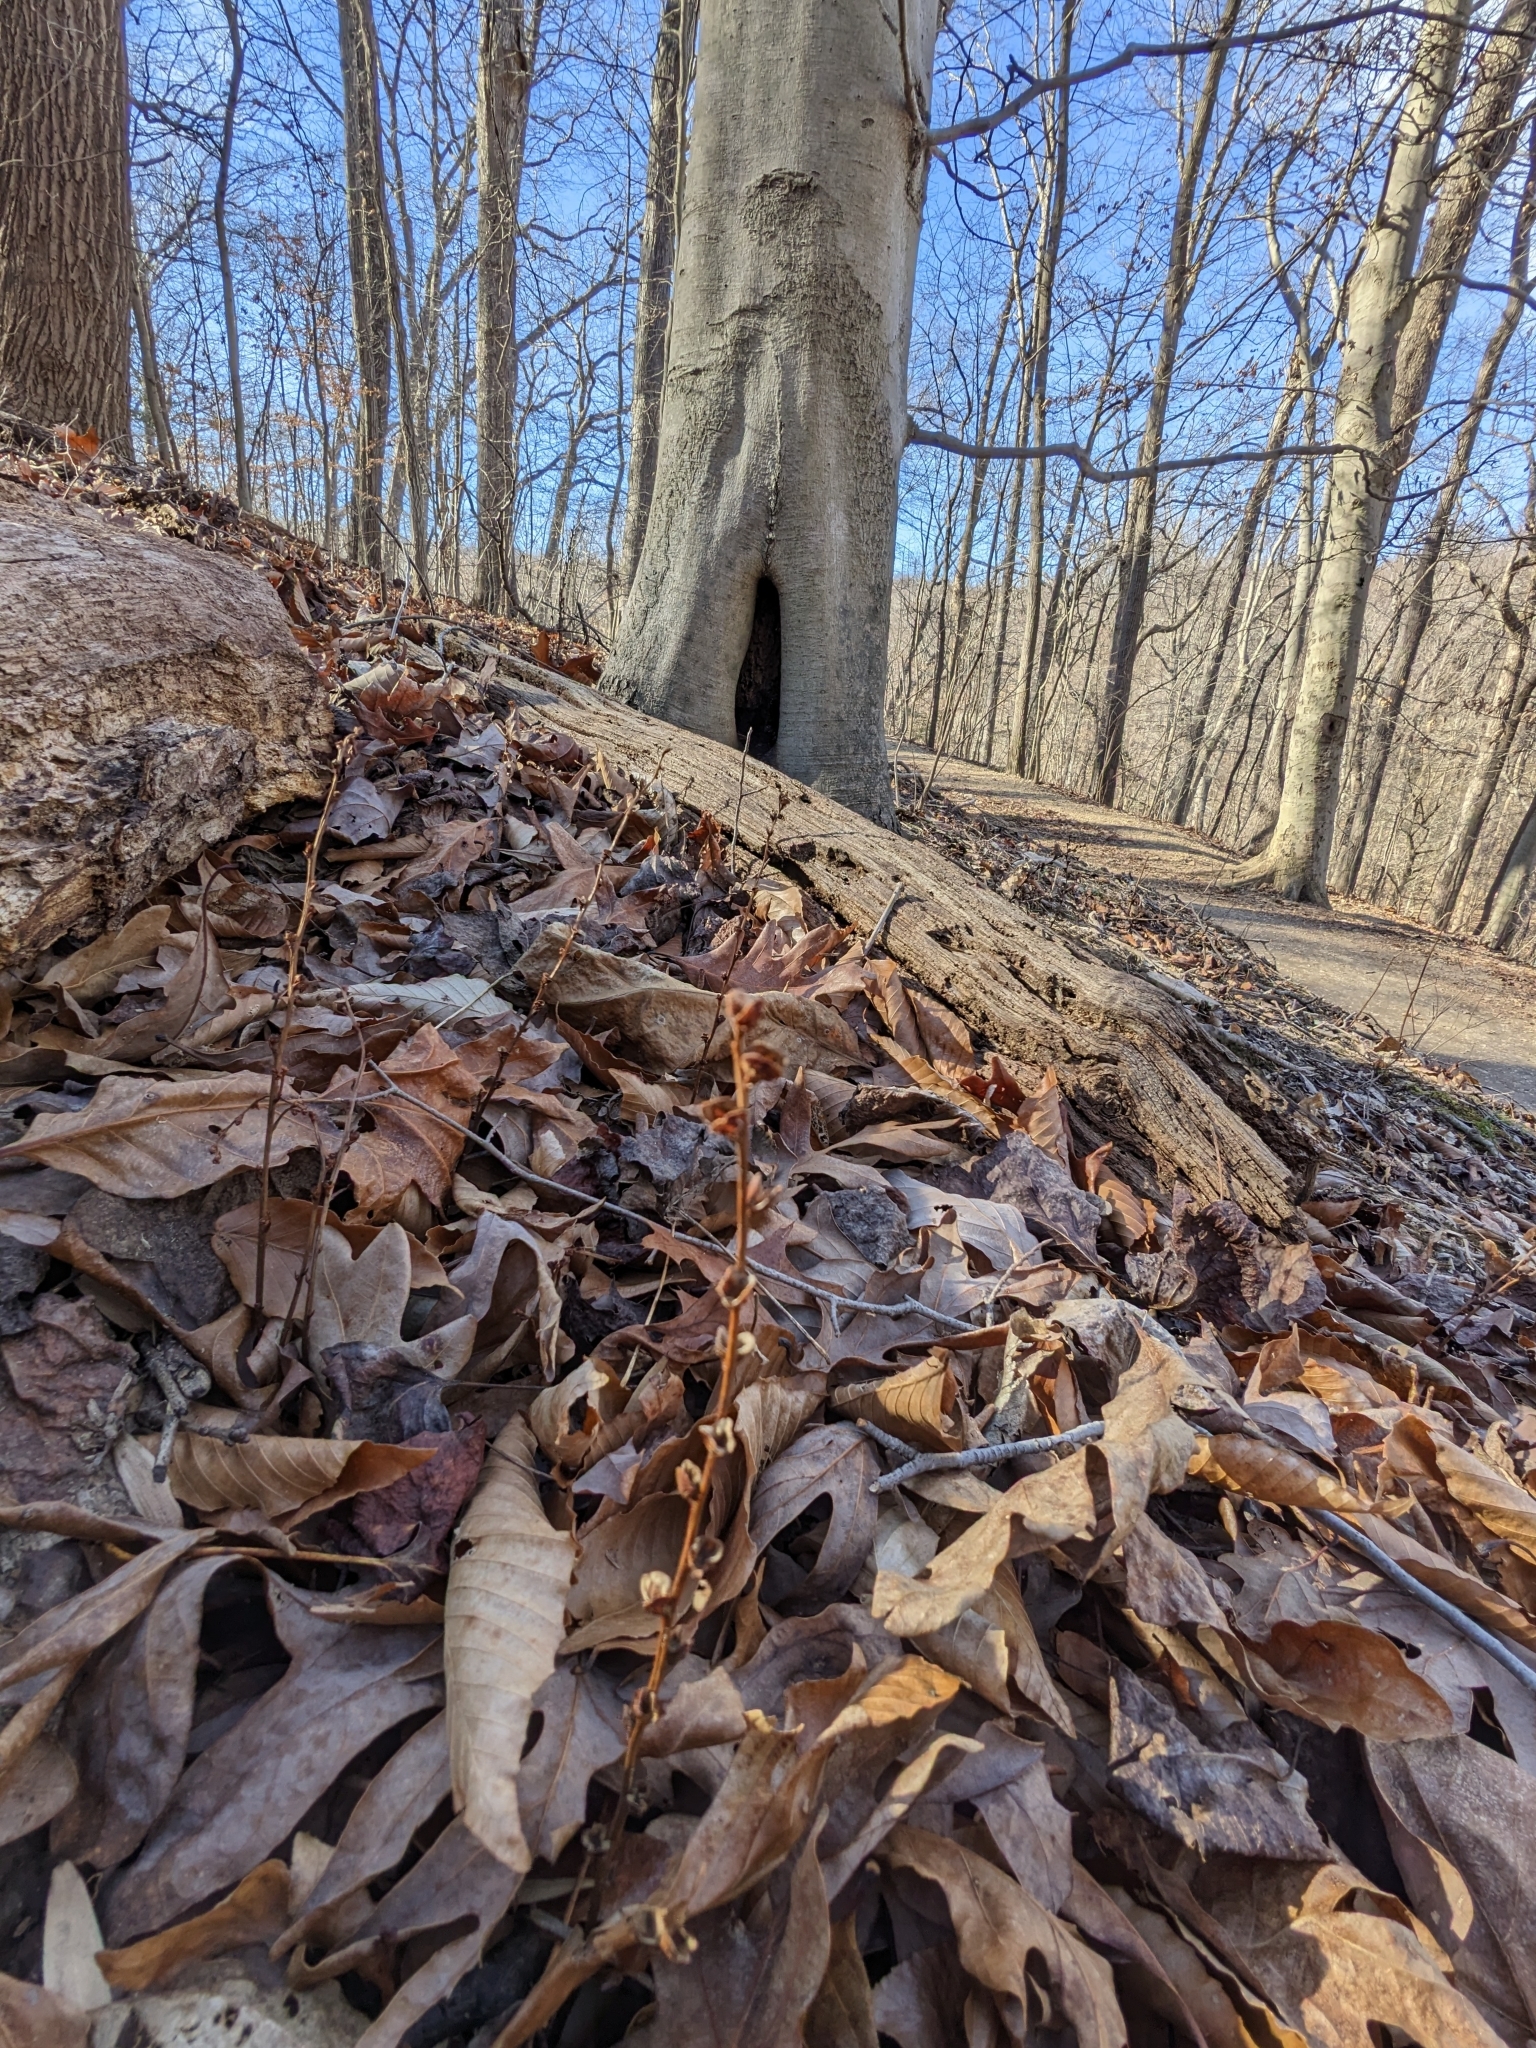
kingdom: Plantae
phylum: Tracheophyta
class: Magnoliopsida
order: Lamiales
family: Orobanchaceae
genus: Epifagus
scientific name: Epifagus virginiana
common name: Beechdrops
